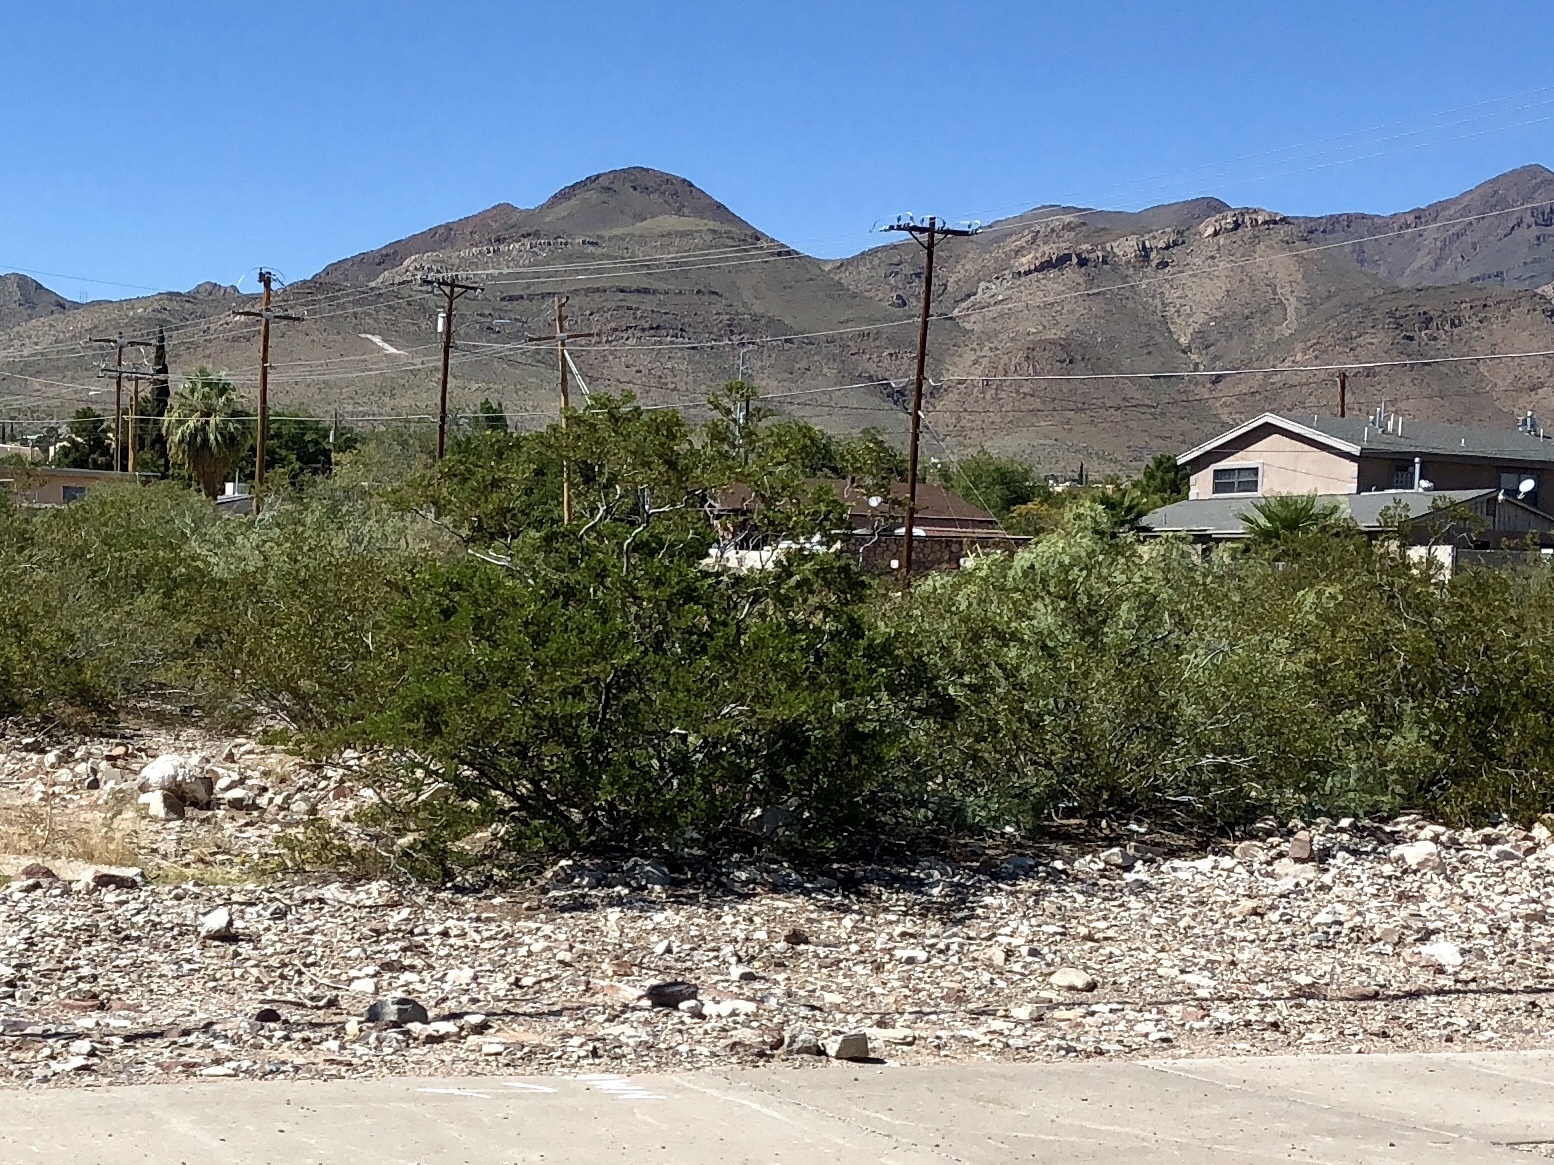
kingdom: Plantae
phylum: Tracheophyta
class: Magnoliopsida
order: Zygophyllales
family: Zygophyllaceae
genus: Larrea
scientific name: Larrea tridentata
